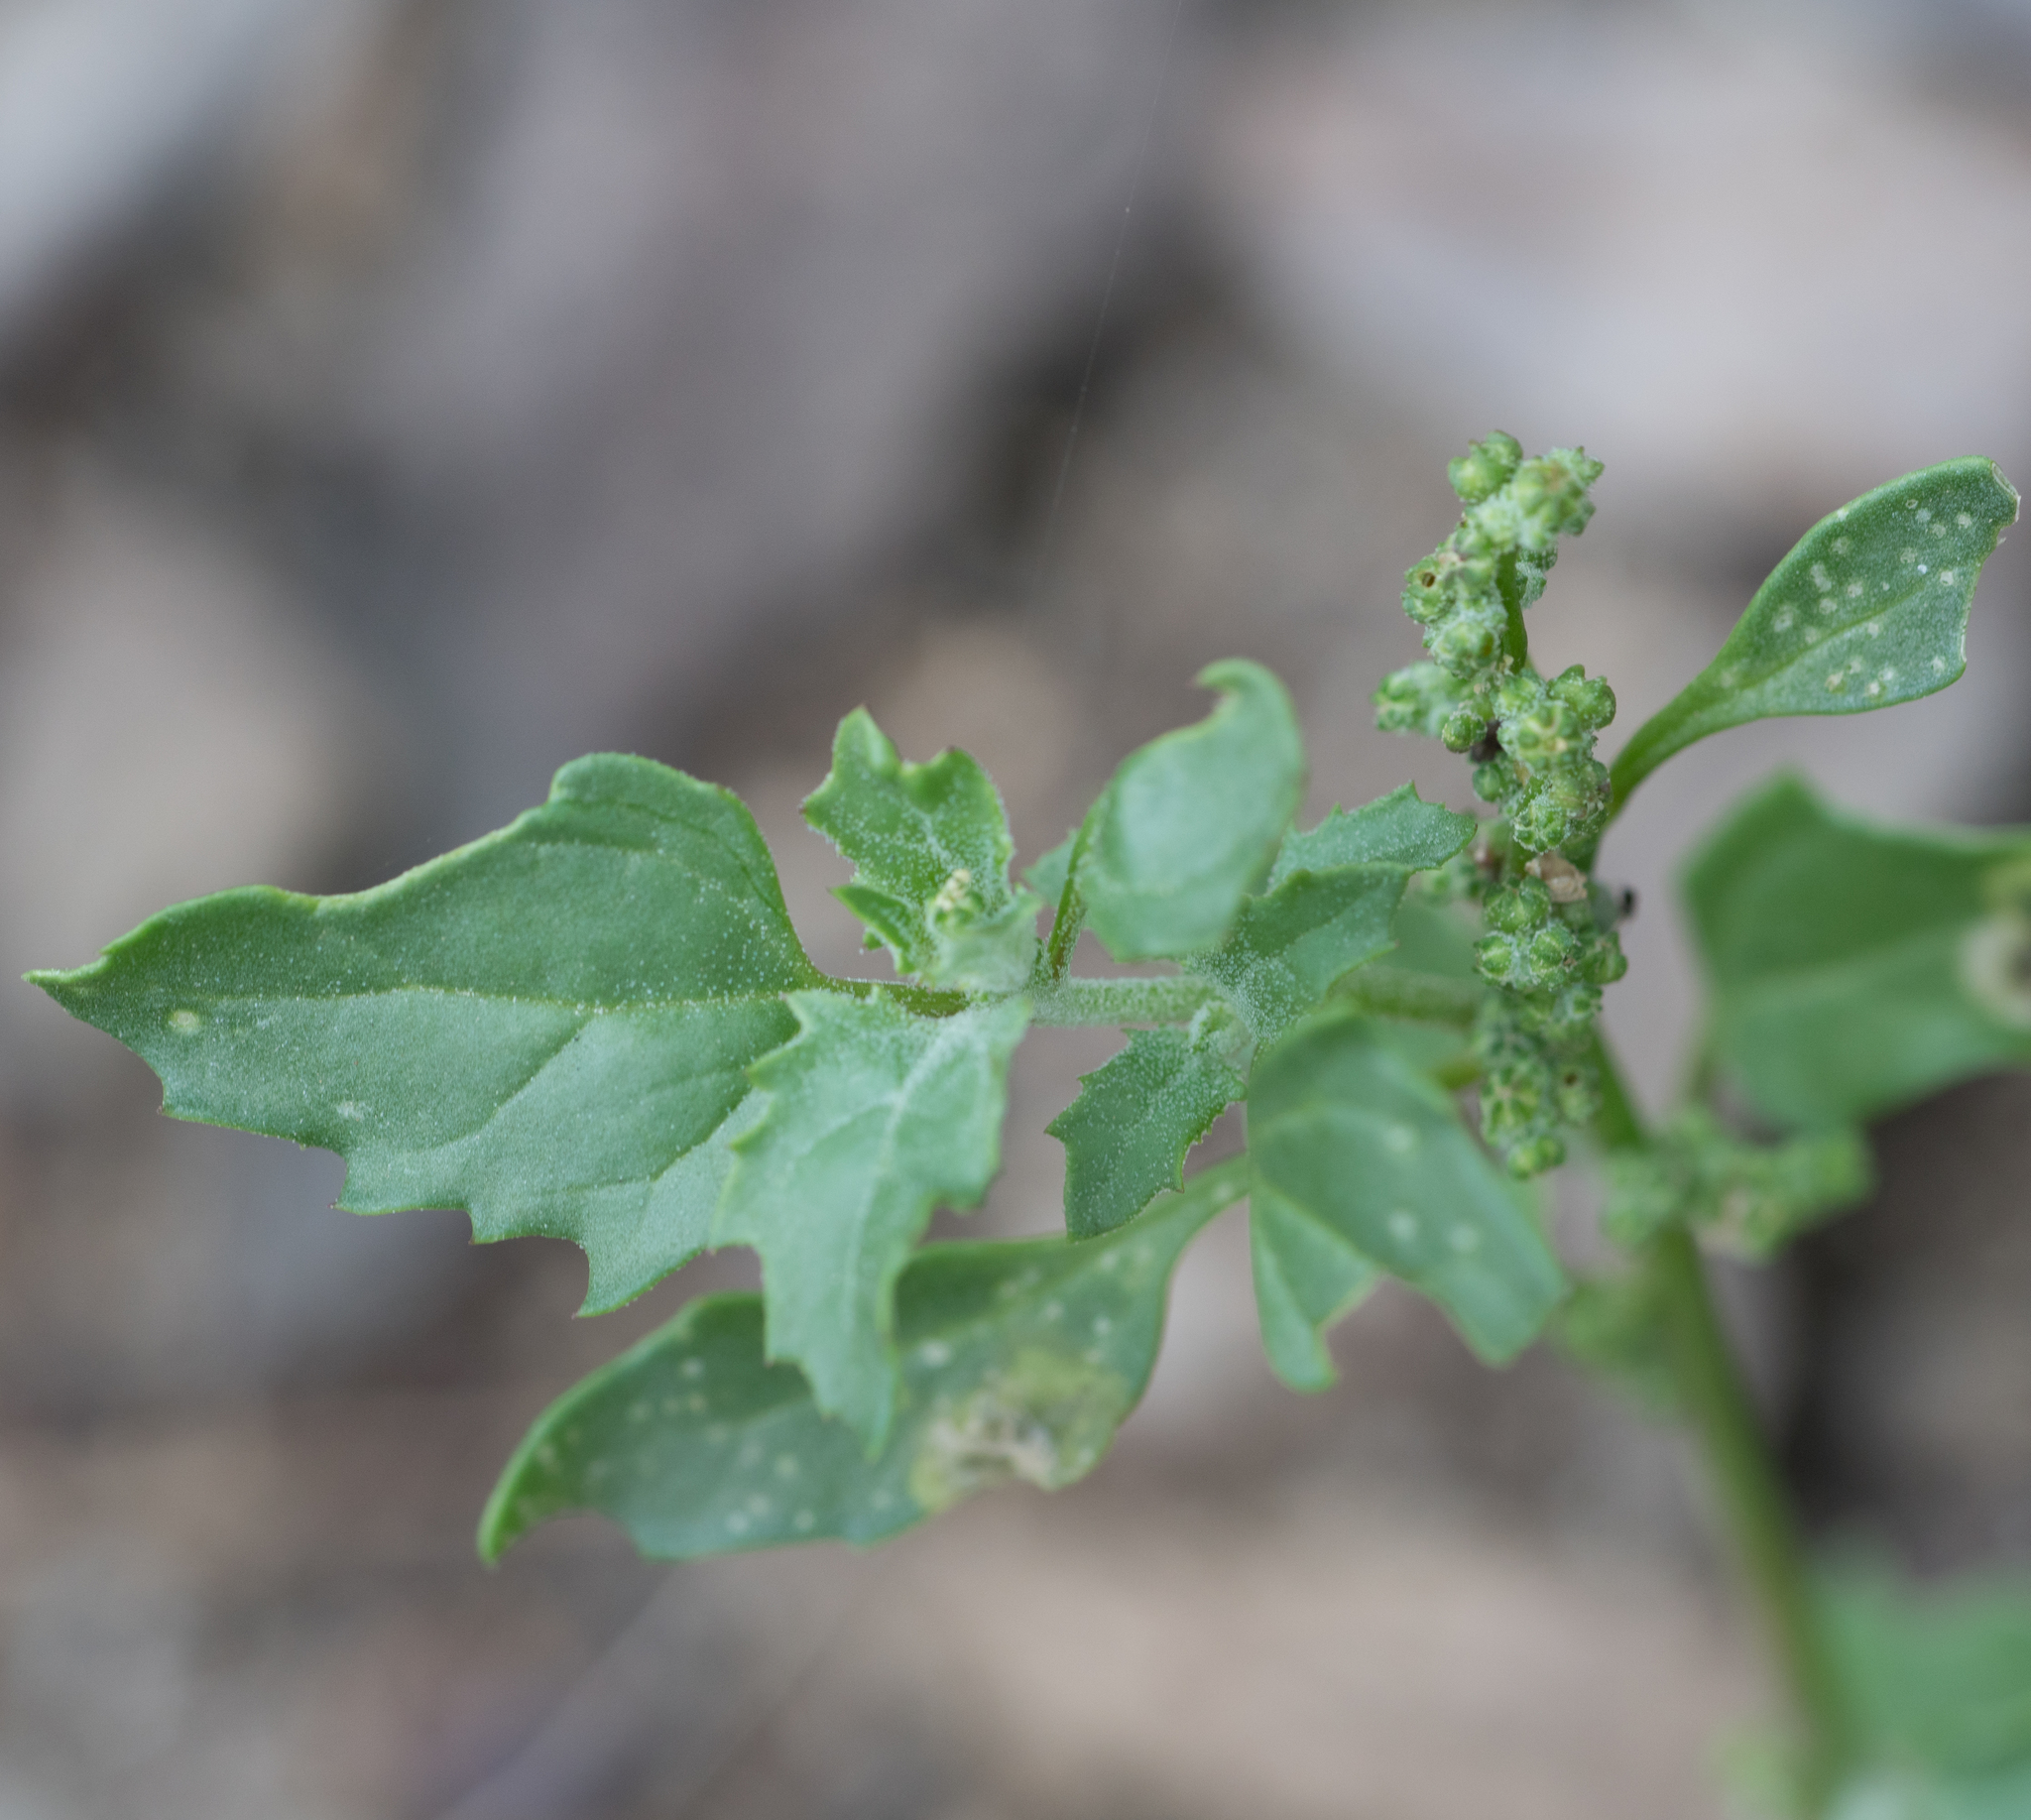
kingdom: Plantae
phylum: Tracheophyta
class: Magnoliopsida
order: Caryophyllales
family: Amaranthaceae
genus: Chenopodiastrum
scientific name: Chenopodiastrum murale
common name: Sowbane
